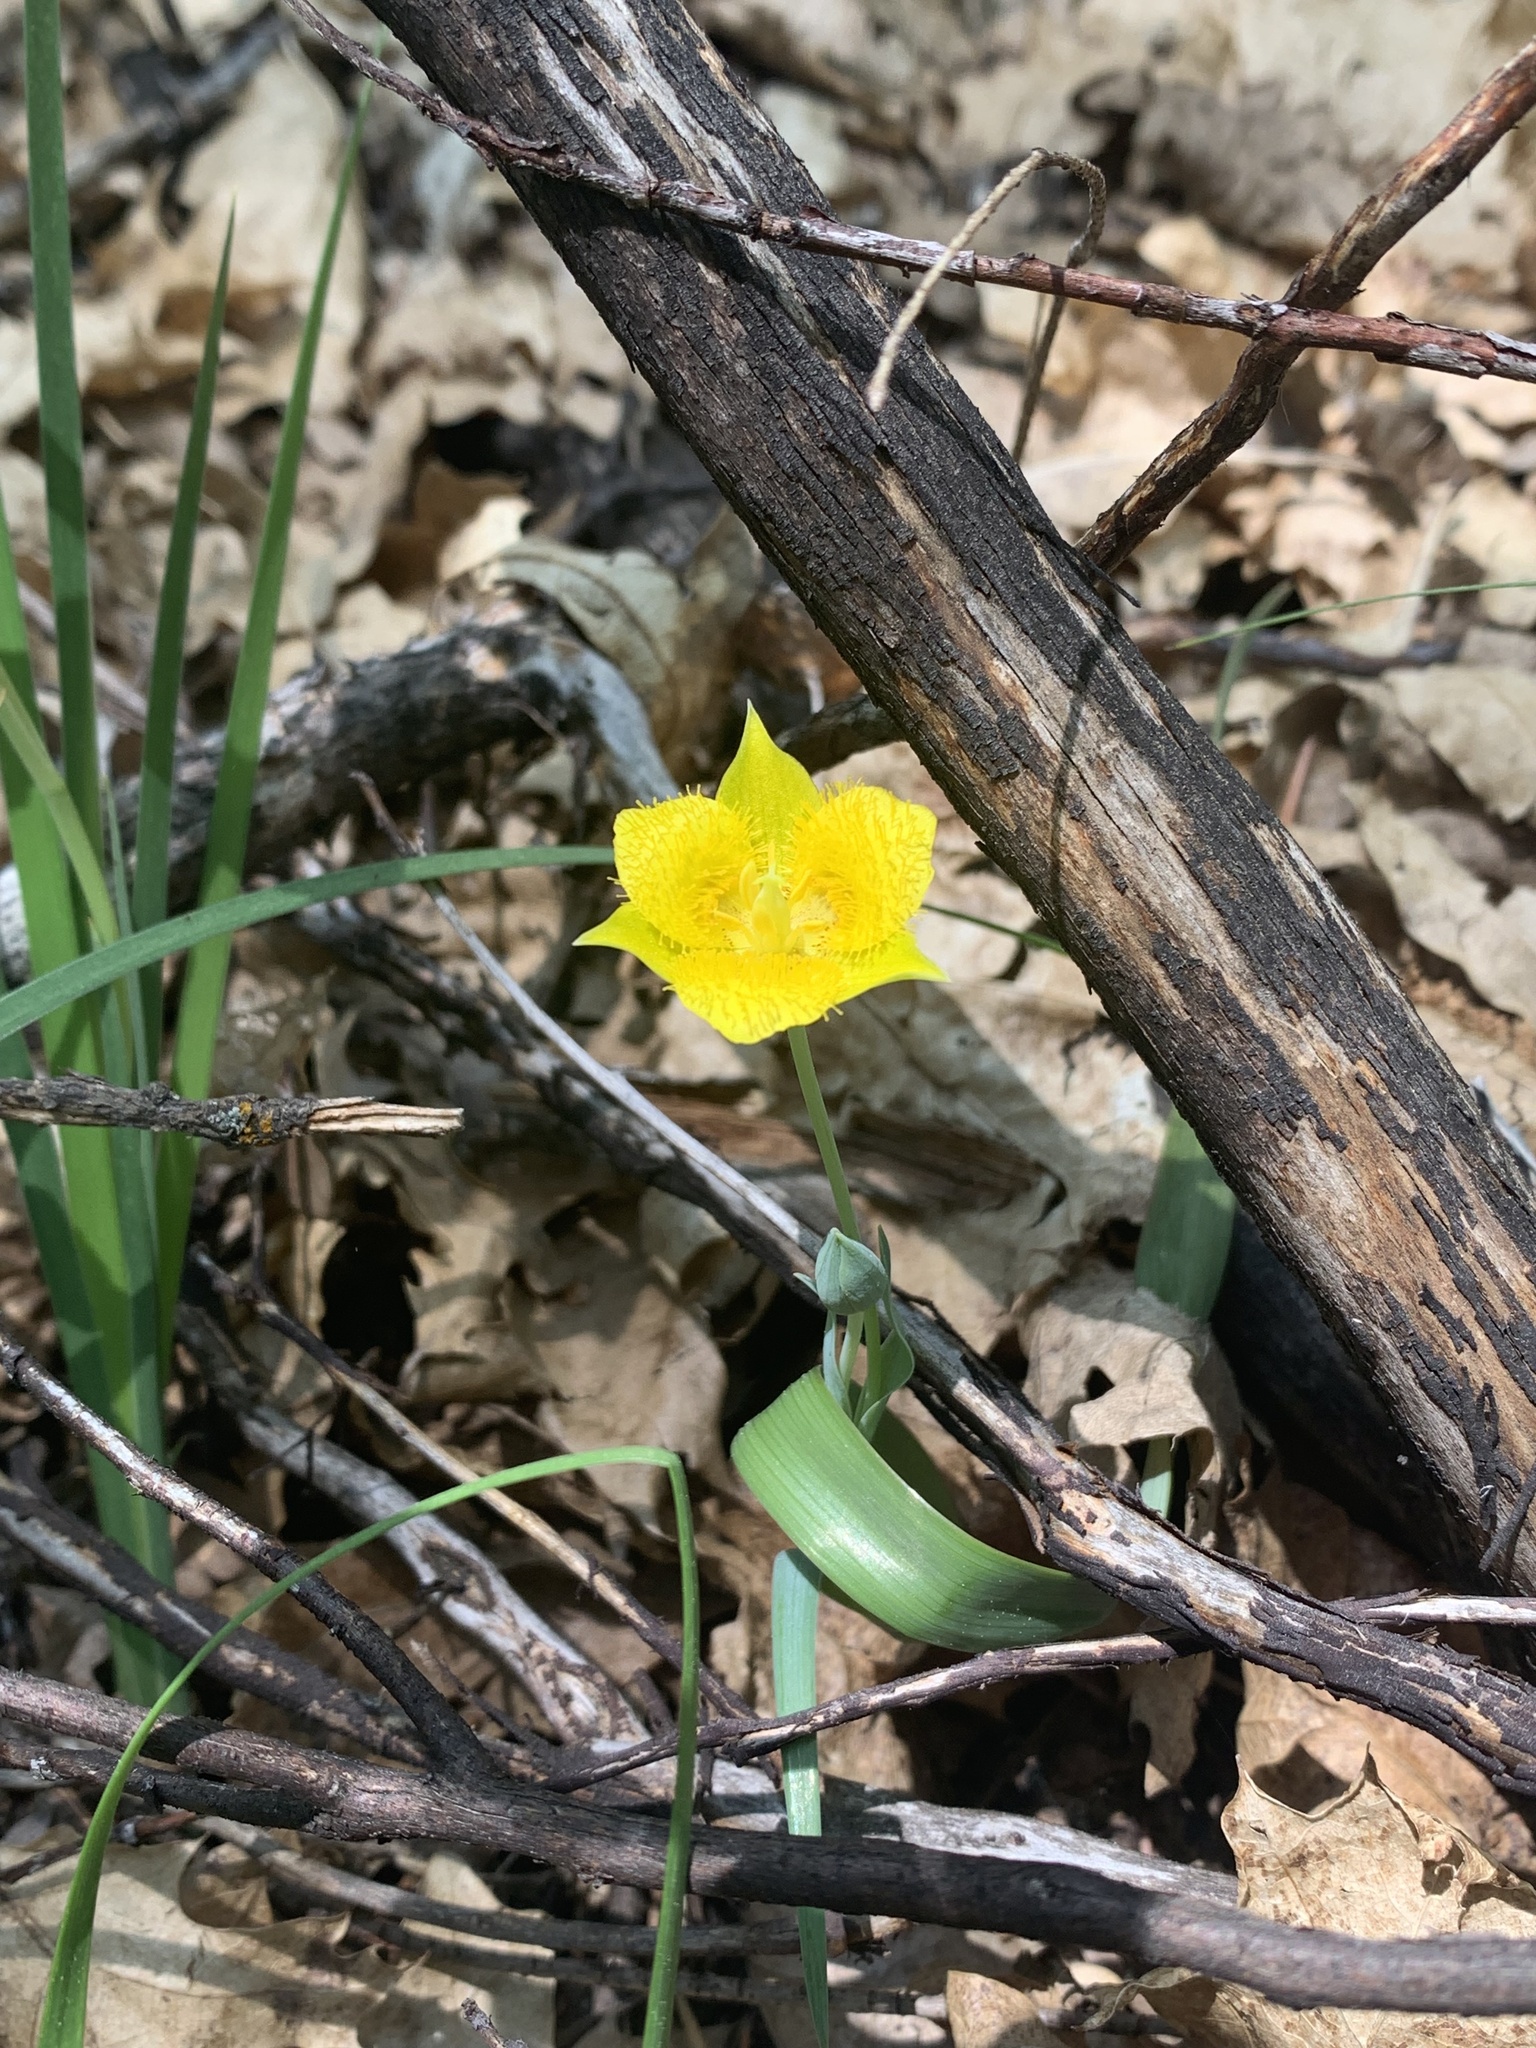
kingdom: Plantae
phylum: Tracheophyta
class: Liliopsida
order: Liliales
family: Liliaceae
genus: Calochortus
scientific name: Calochortus monophyllus
